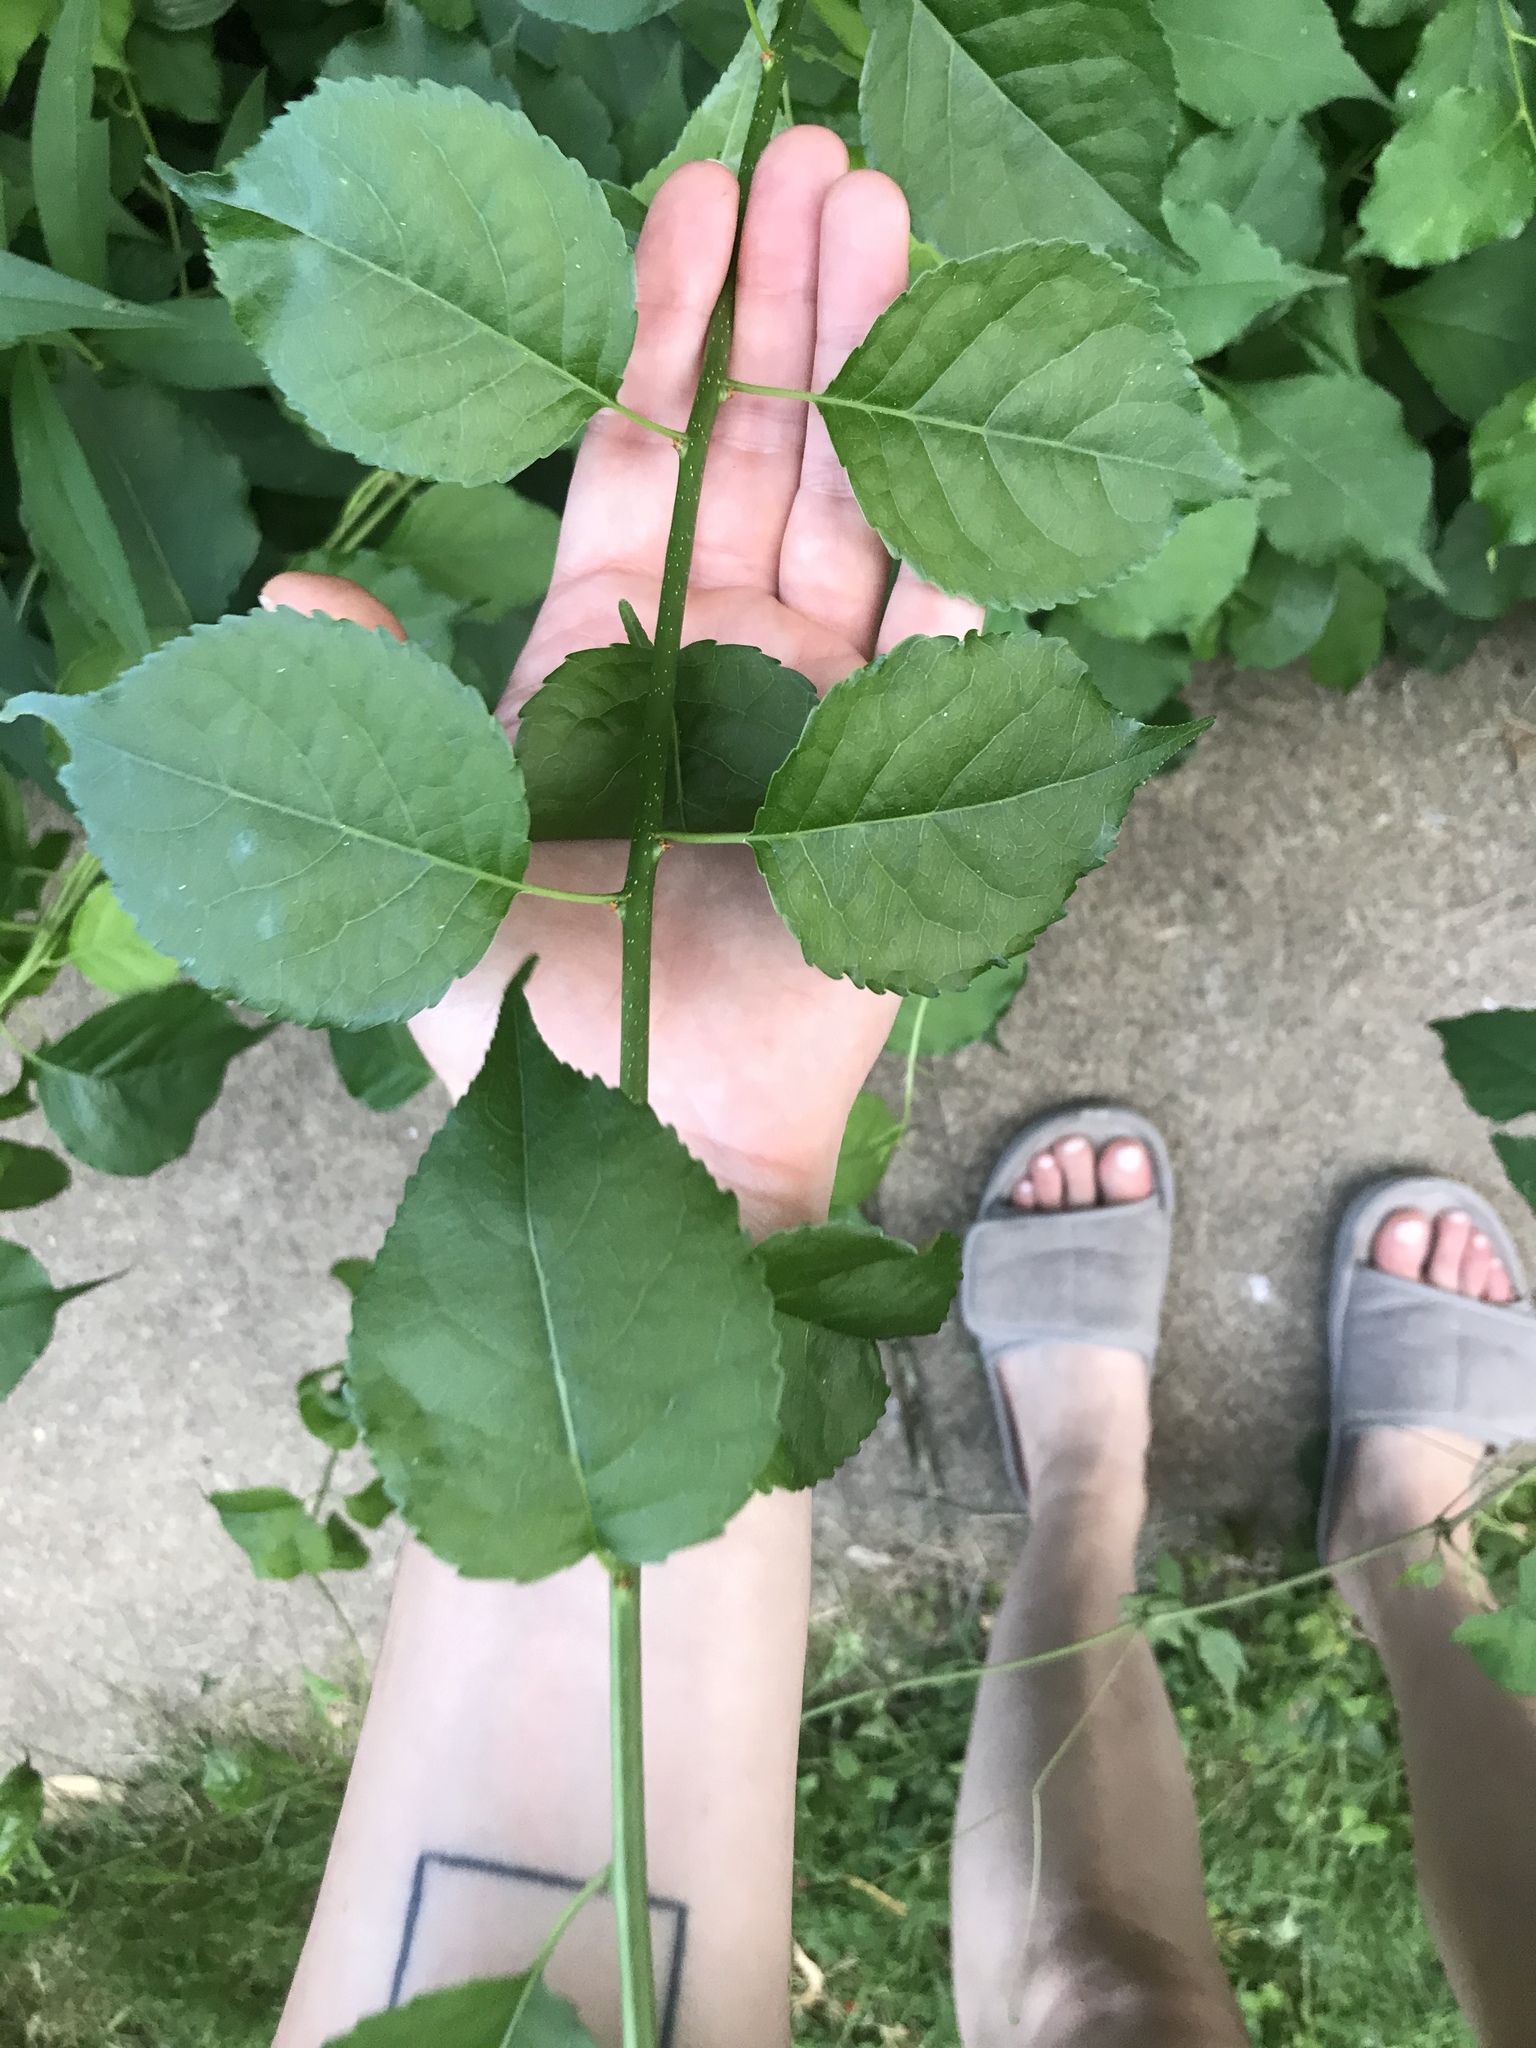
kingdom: Plantae
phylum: Tracheophyta
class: Magnoliopsida
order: Celastrales
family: Celastraceae
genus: Celastrus
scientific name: Celastrus orbiculatus
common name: Oriental bittersweet
